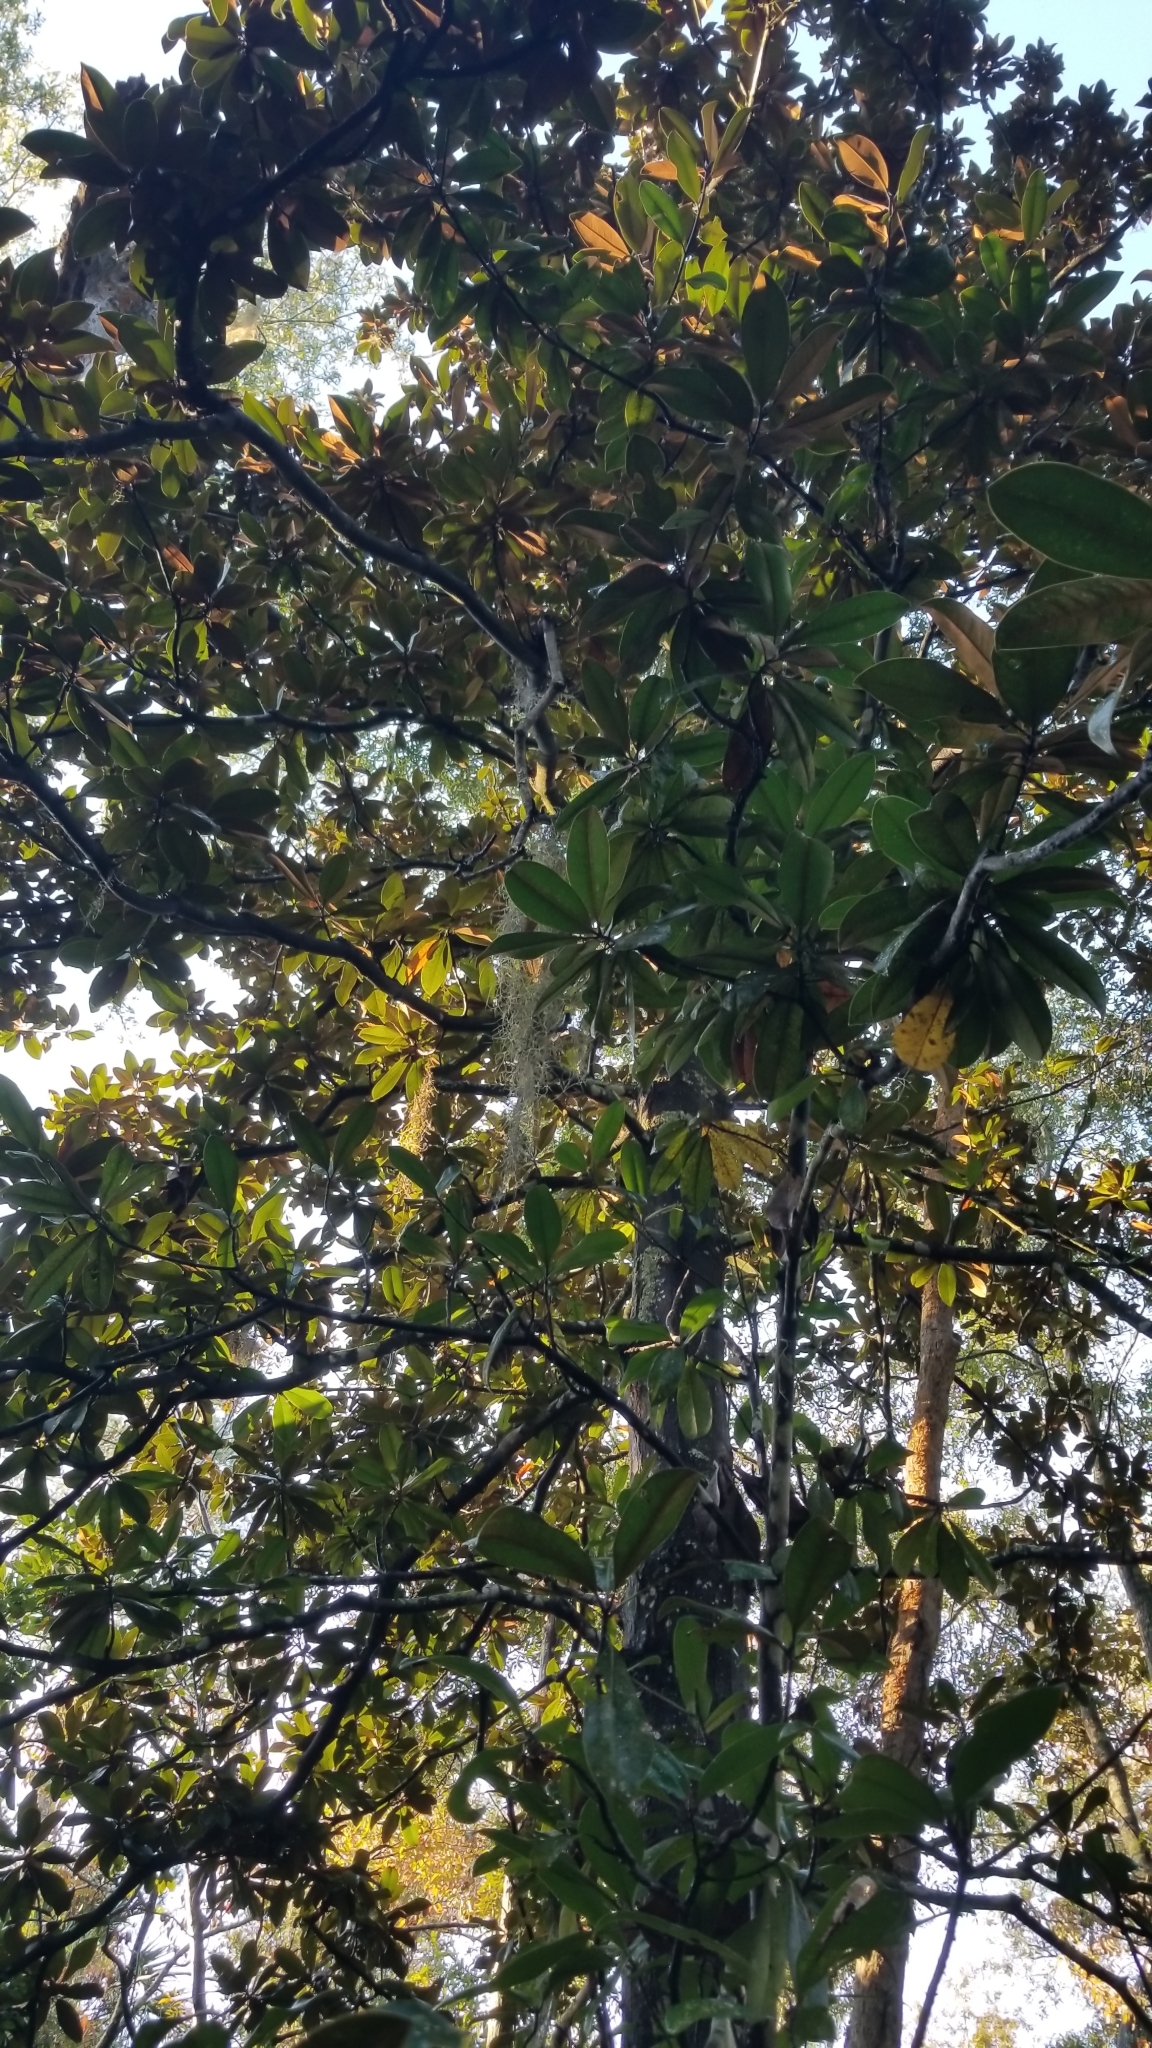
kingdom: Plantae
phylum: Tracheophyta
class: Magnoliopsida
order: Magnoliales
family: Magnoliaceae
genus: Magnolia
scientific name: Magnolia grandiflora
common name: Southern magnolia
